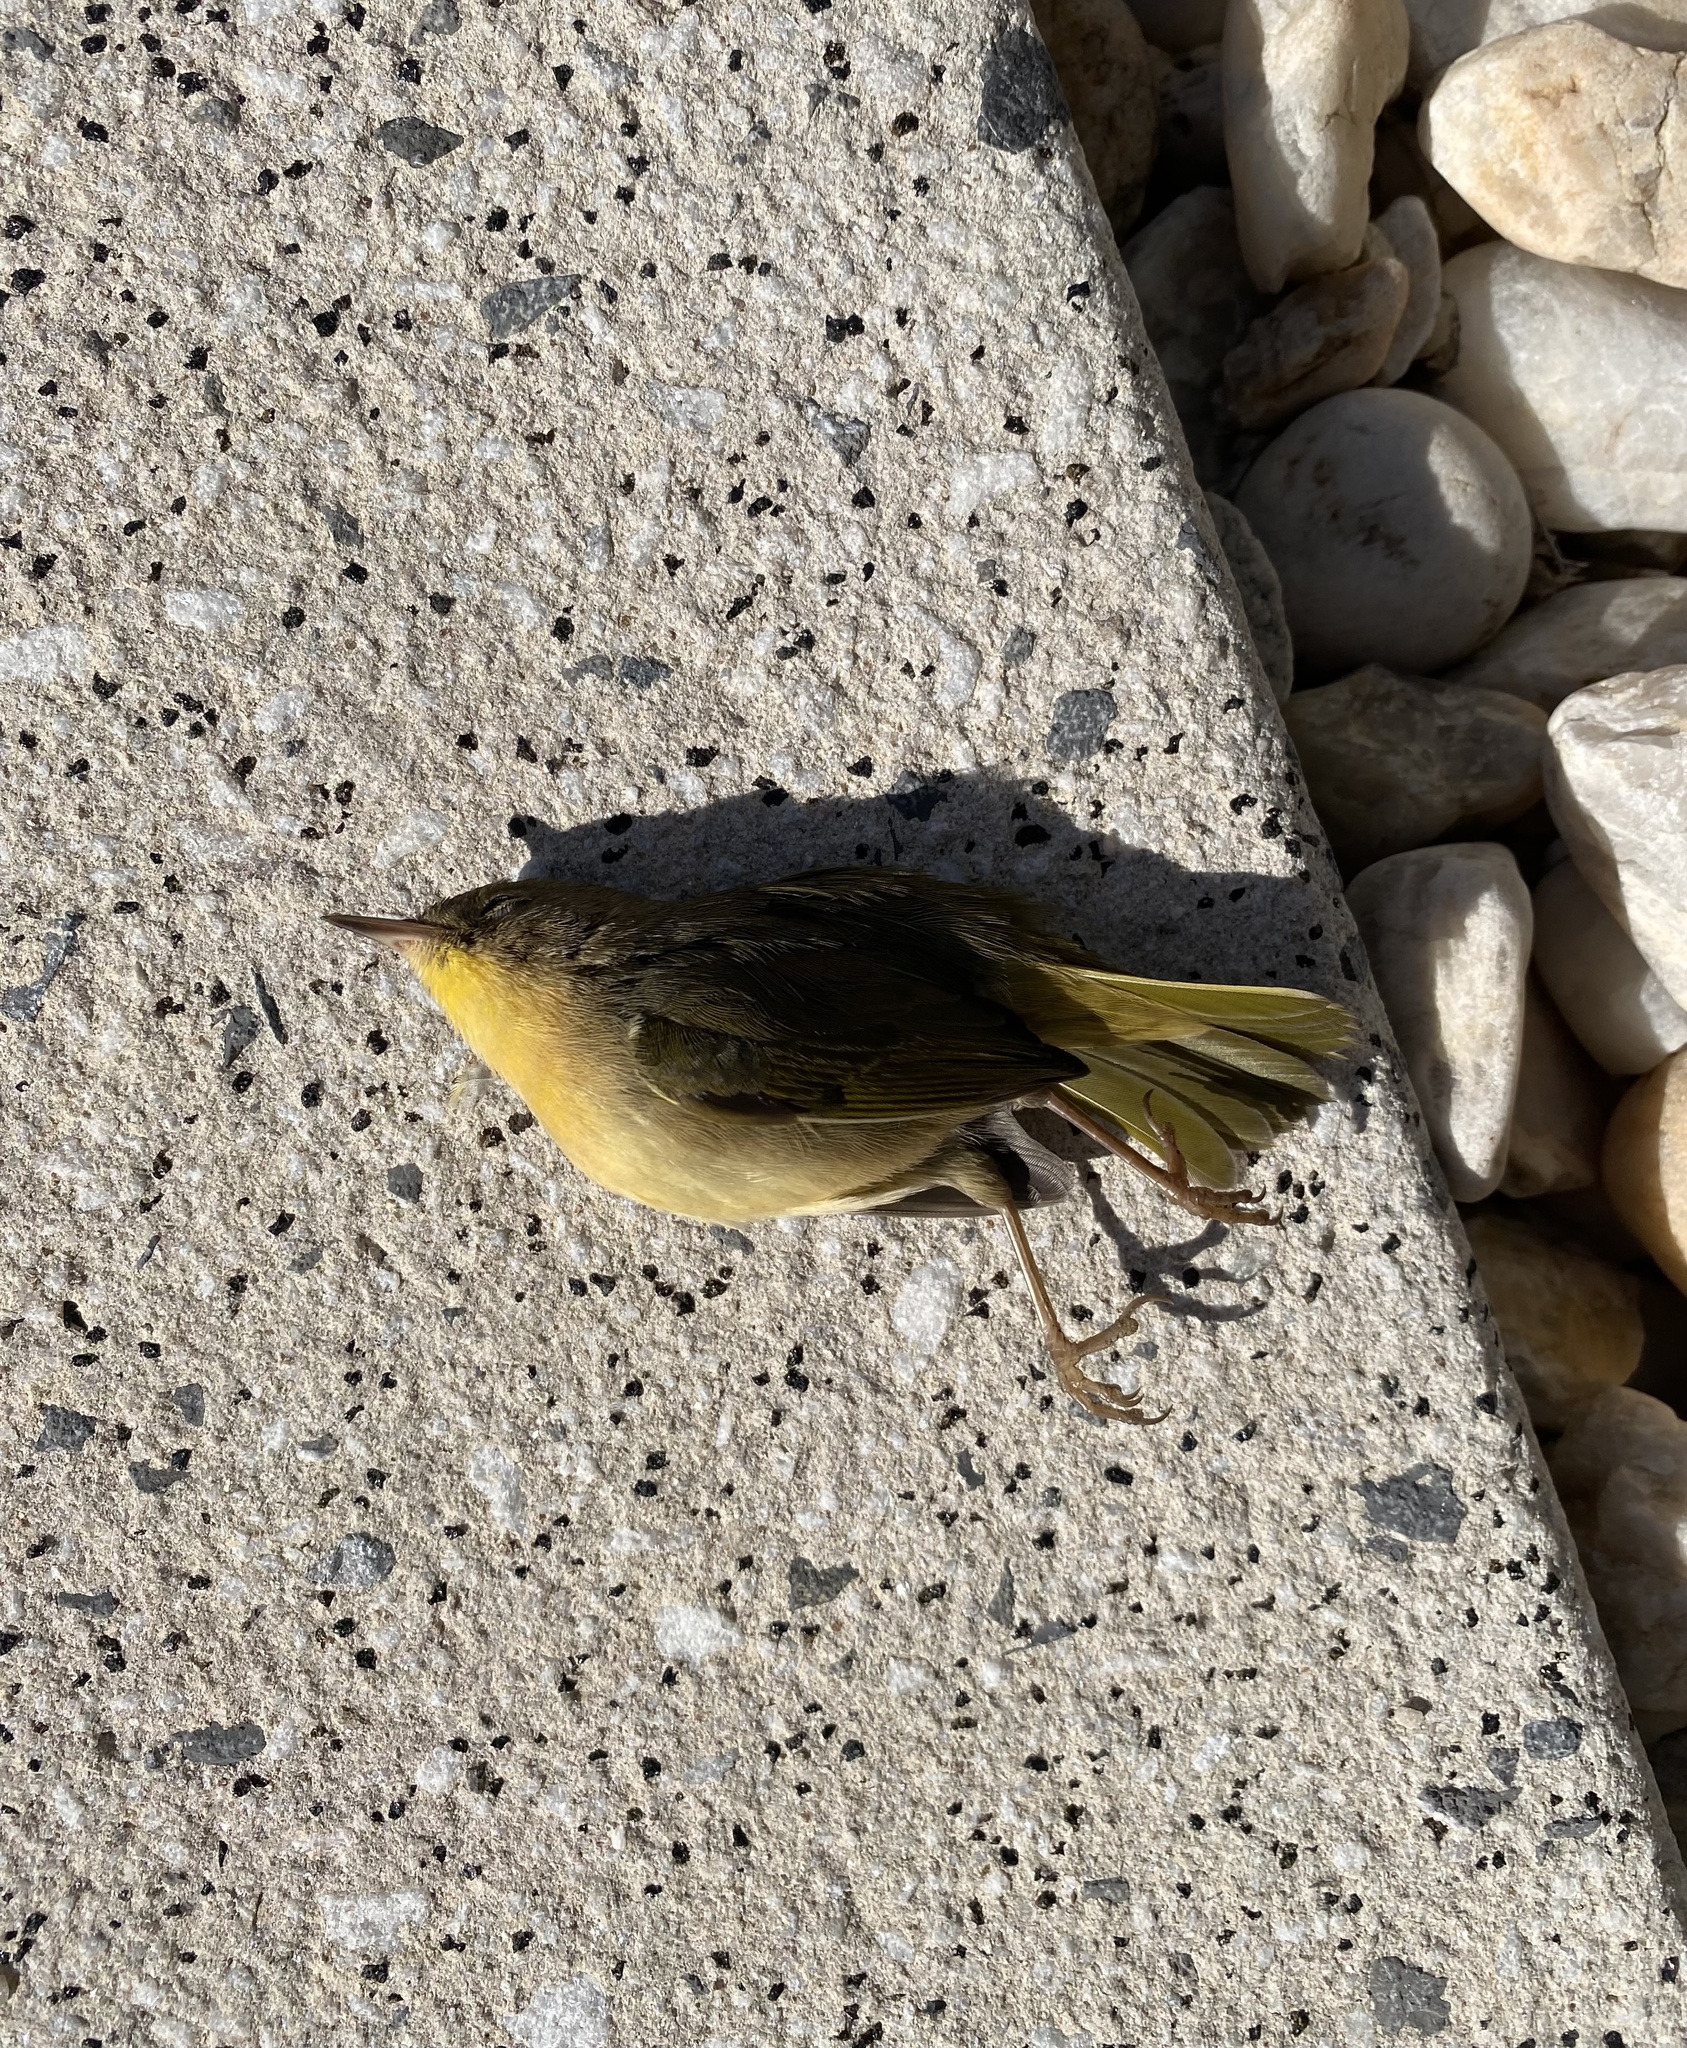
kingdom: Animalia
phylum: Chordata
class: Aves
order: Passeriformes
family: Parulidae
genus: Geothlypis
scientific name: Geothlypis trichas
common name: Common yellowthroat
